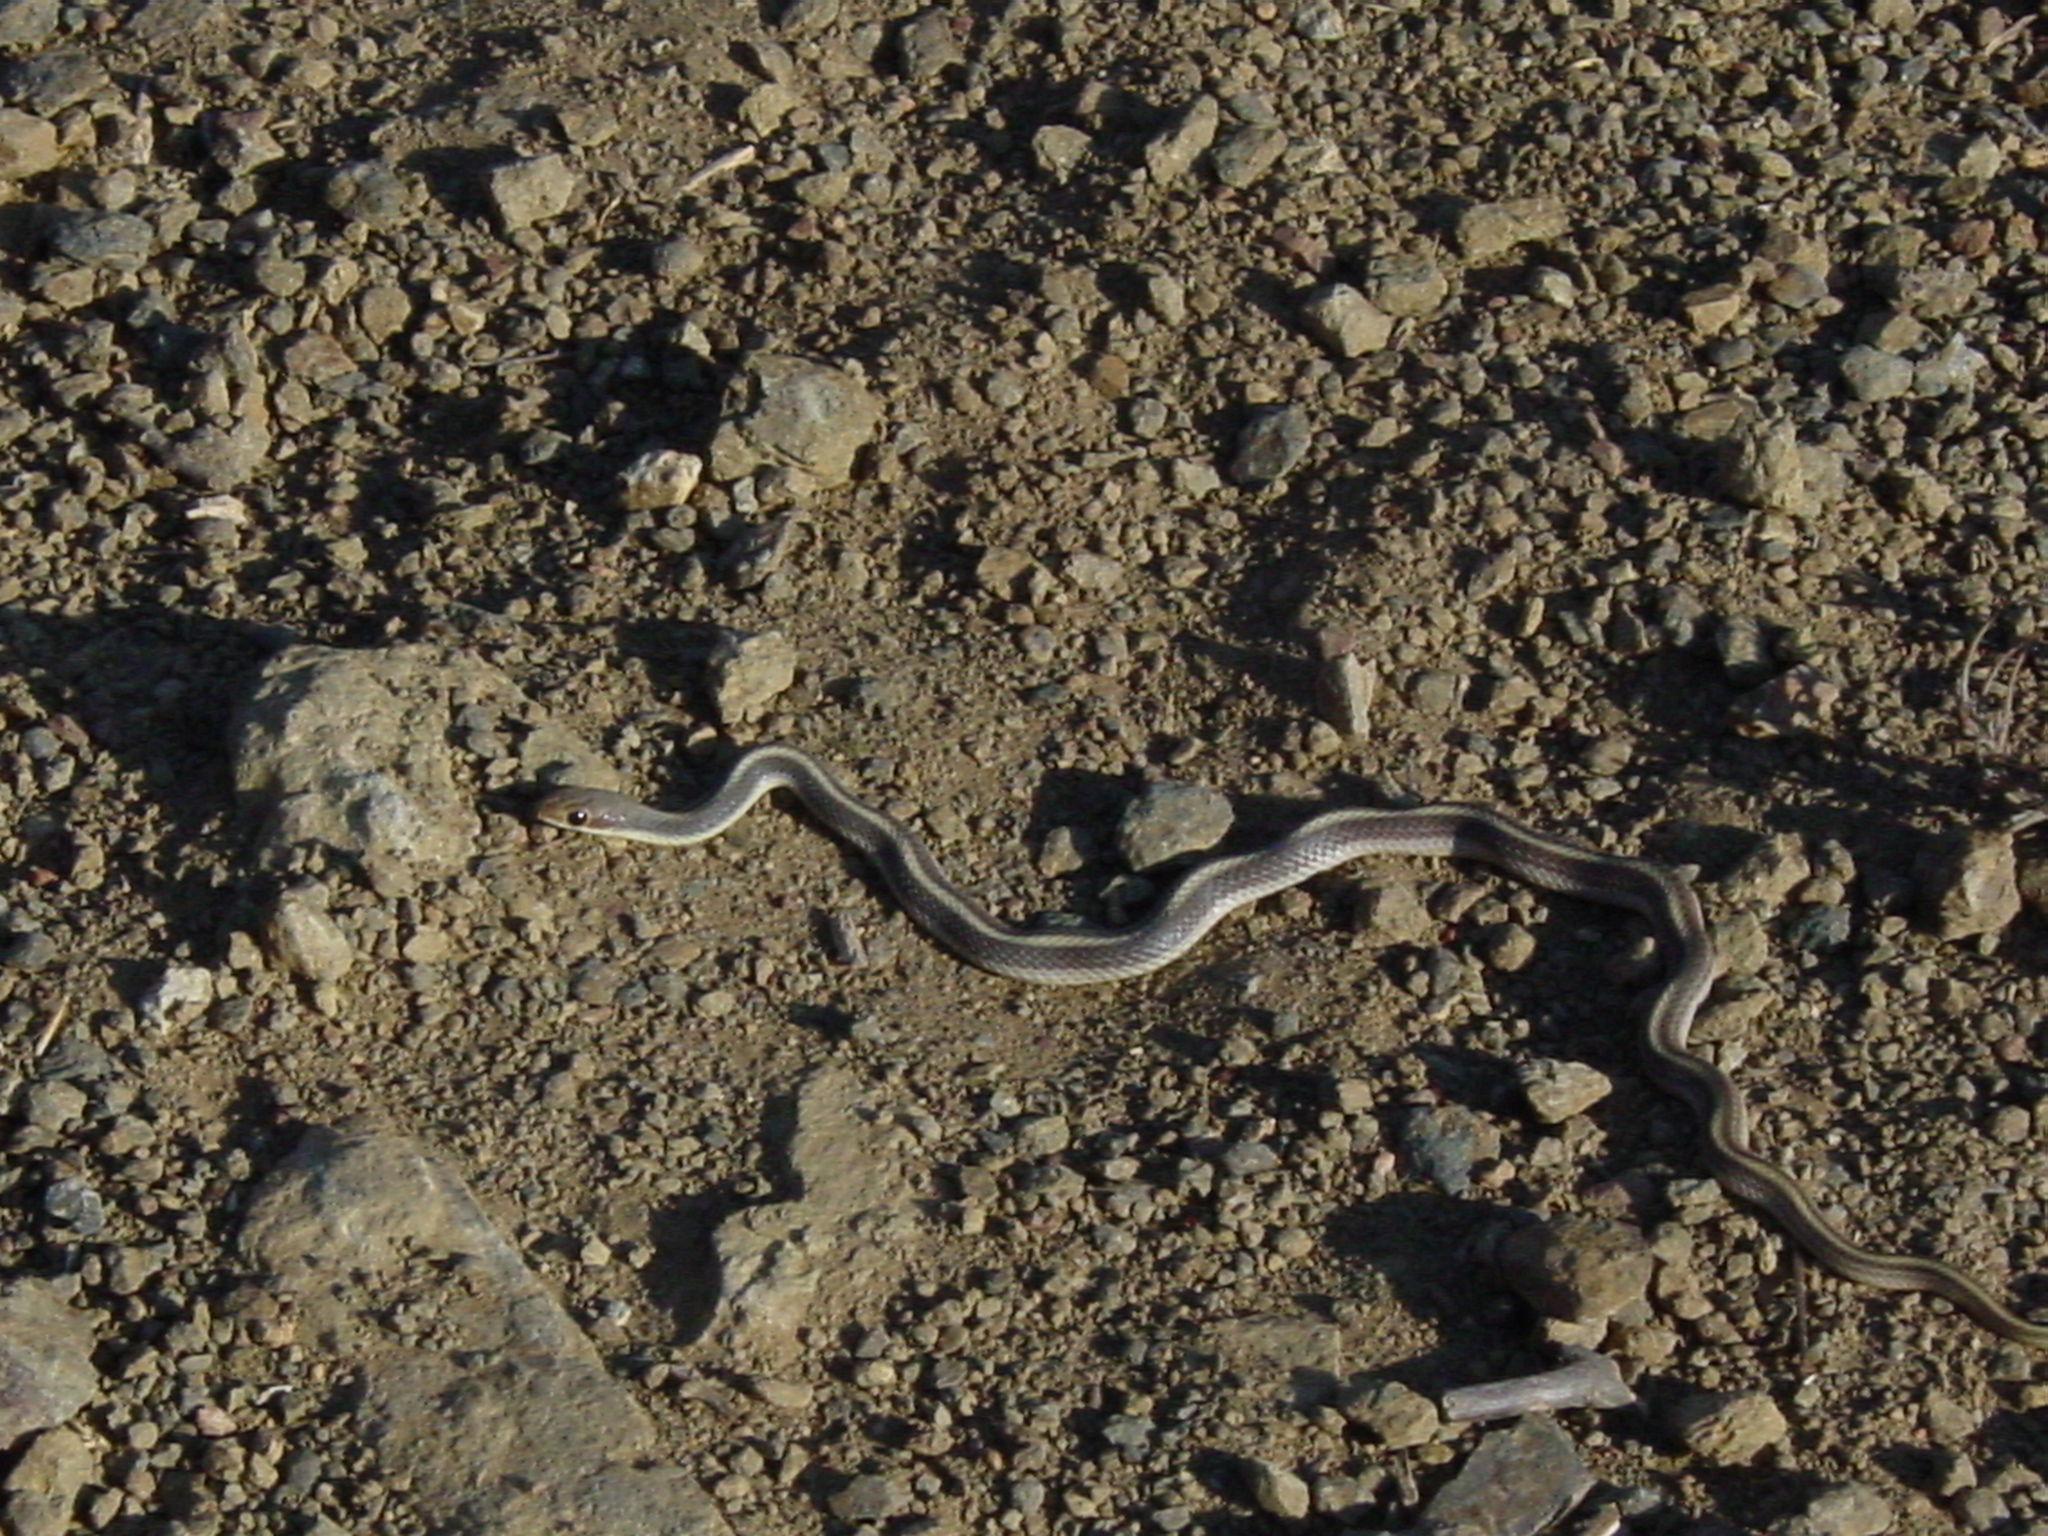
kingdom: Animalia
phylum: Chordata
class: Squamata
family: Colubridae
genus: Salvadora
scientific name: Salvadora hexalepis
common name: Western patchnose snake
